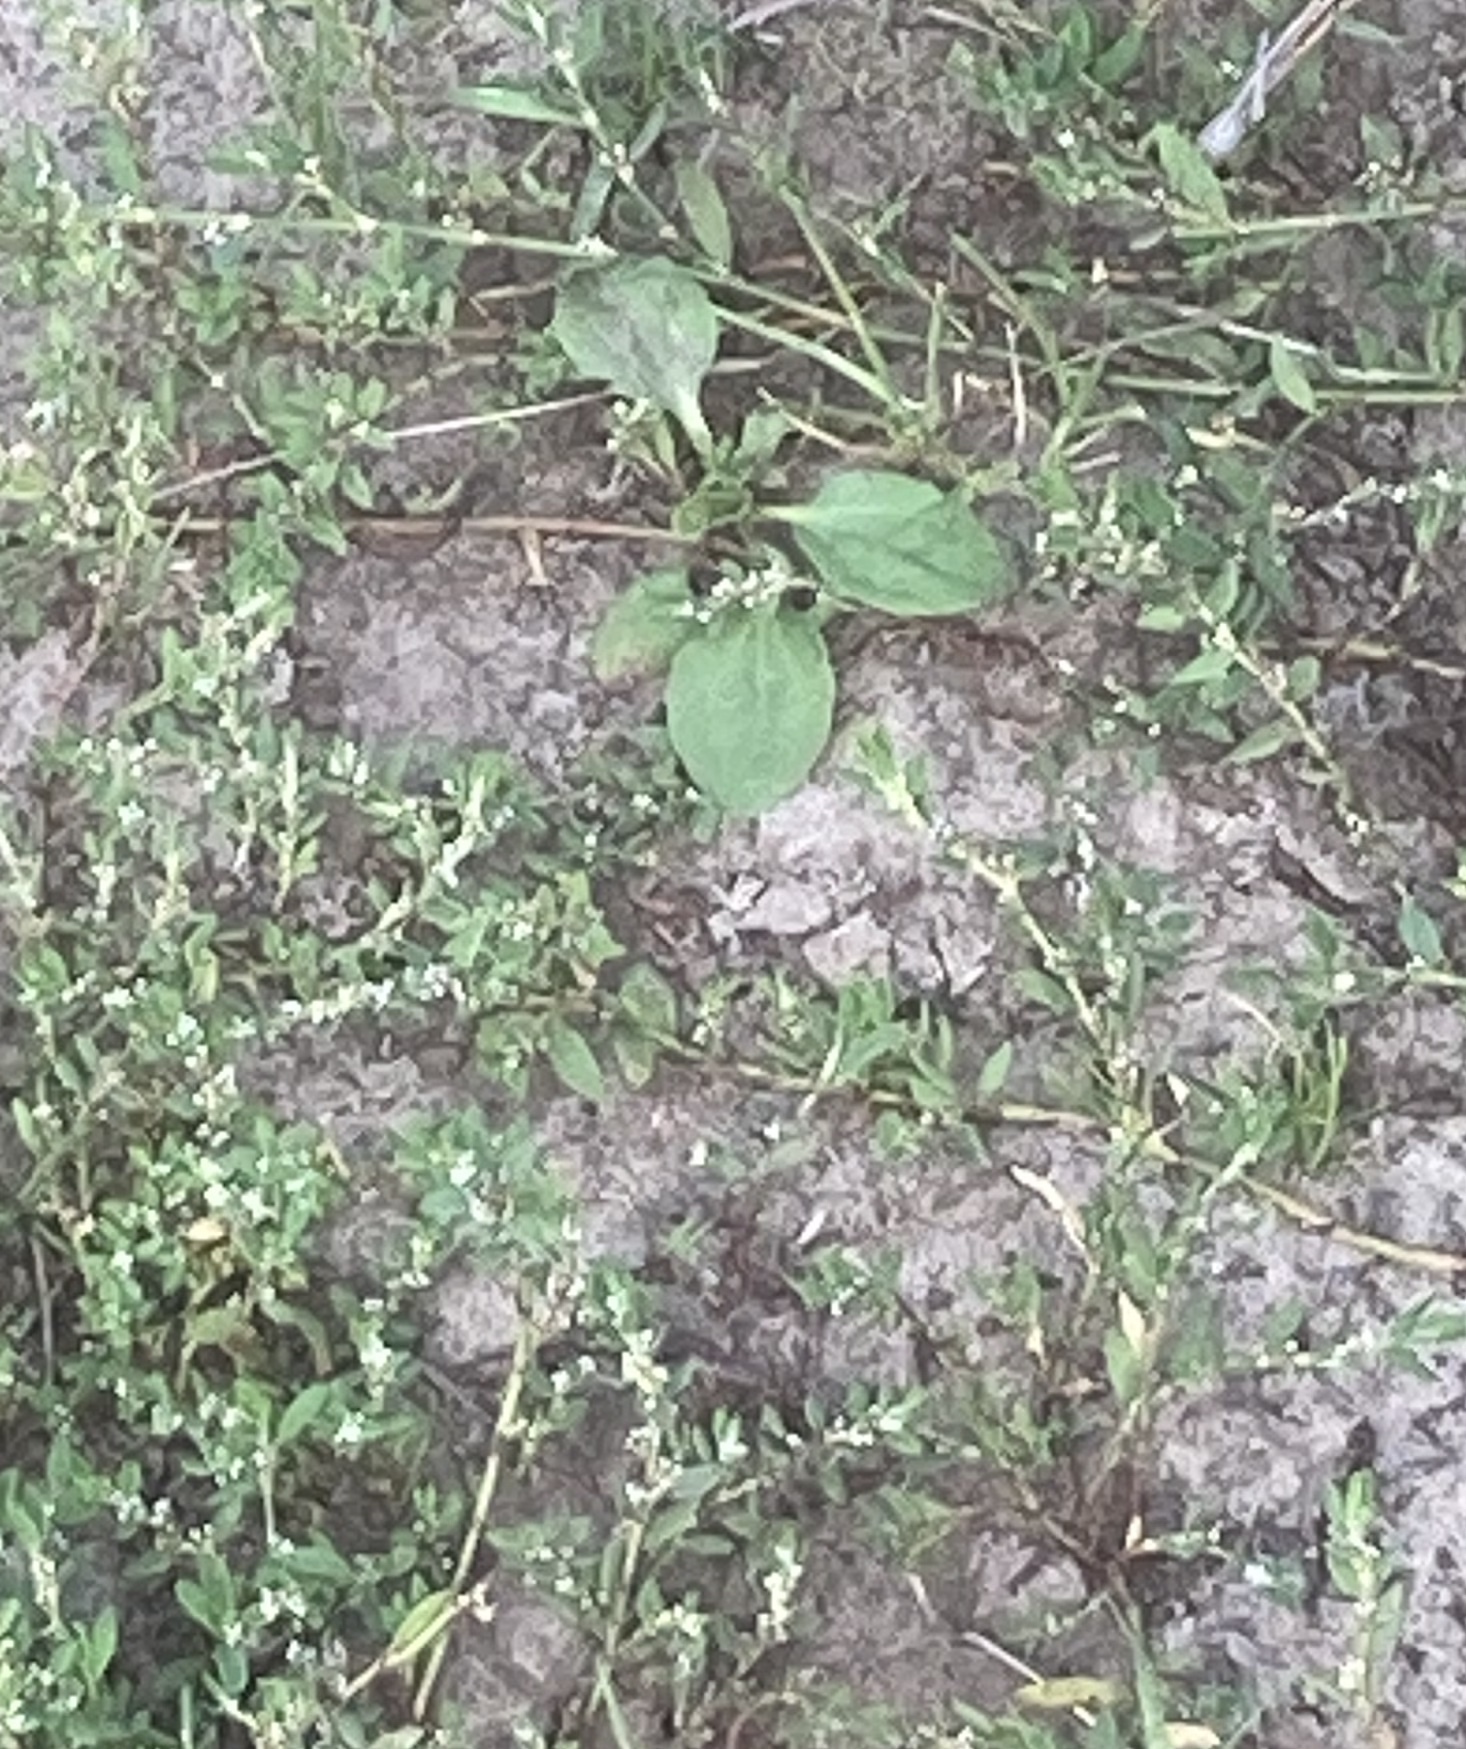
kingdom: Plantae
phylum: Tracheophyta
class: Magnoliopsida
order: Lamiales
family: Plantaginaceae
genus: Plantago
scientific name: Plantago major
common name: Common plantain
